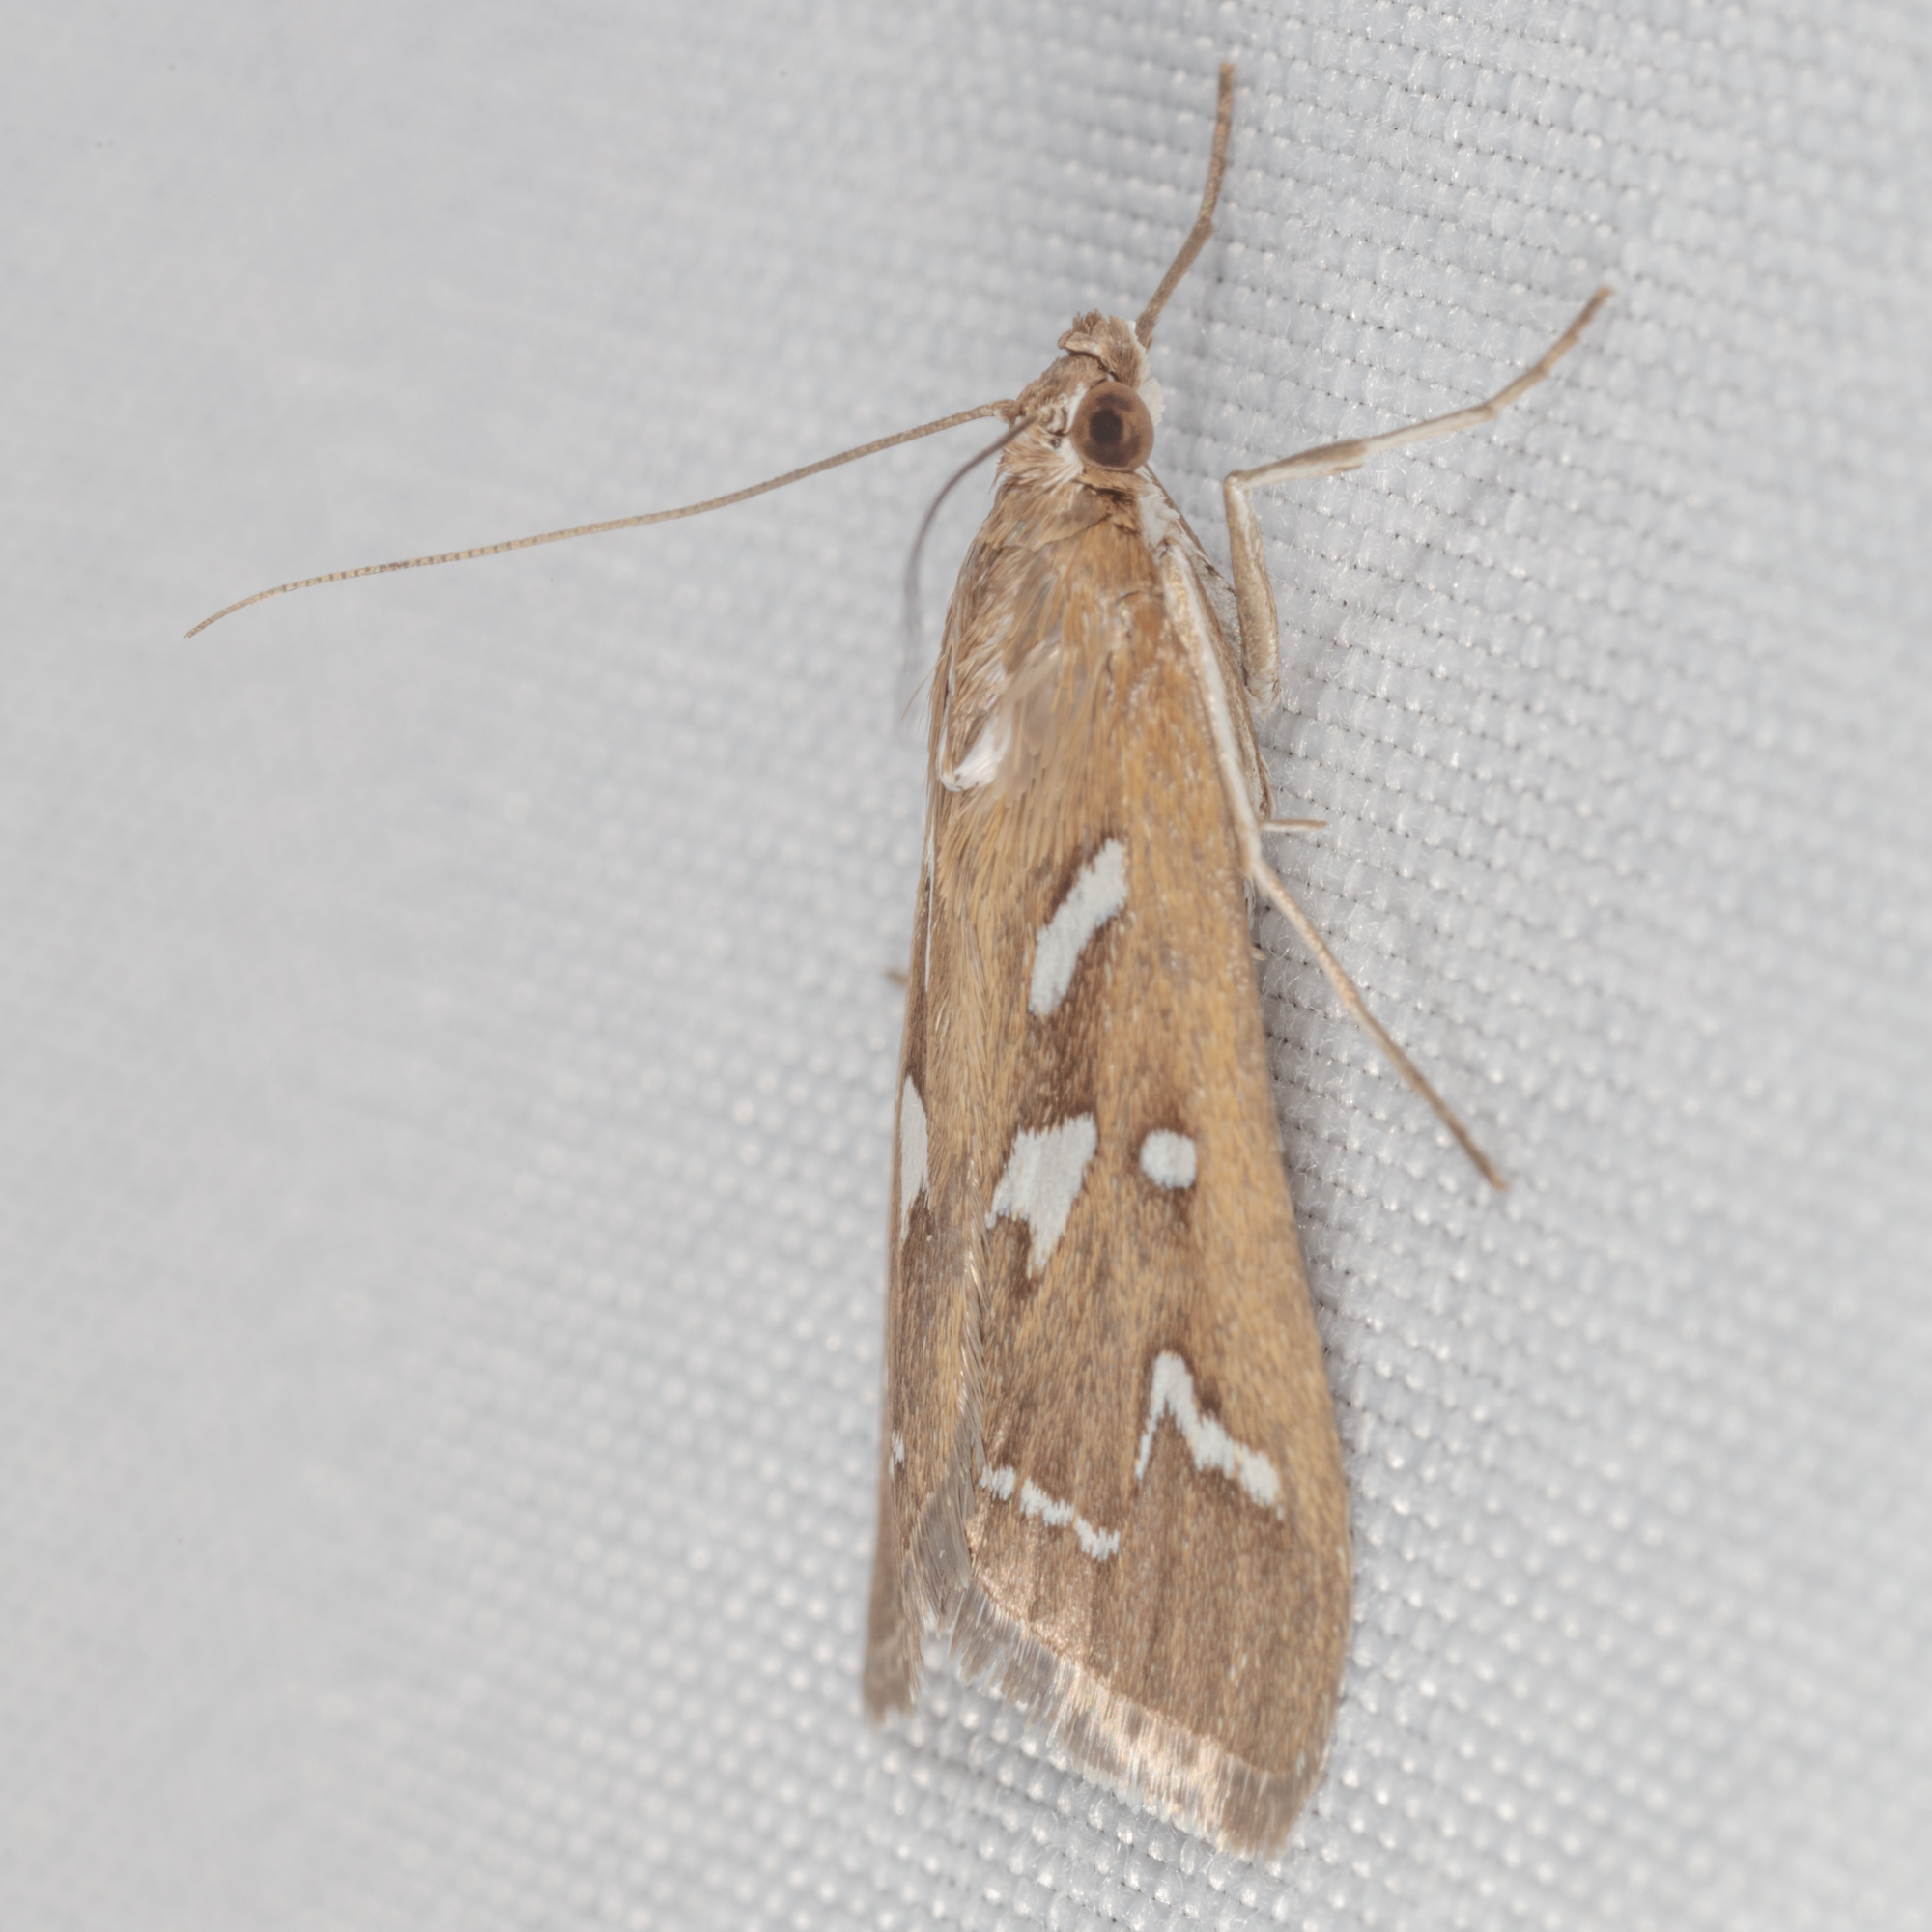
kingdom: Animalia
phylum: Arthropoda
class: Insecta
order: Lepidoptera
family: Crambidae
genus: Diastictis
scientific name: Diastictis fracturalis
